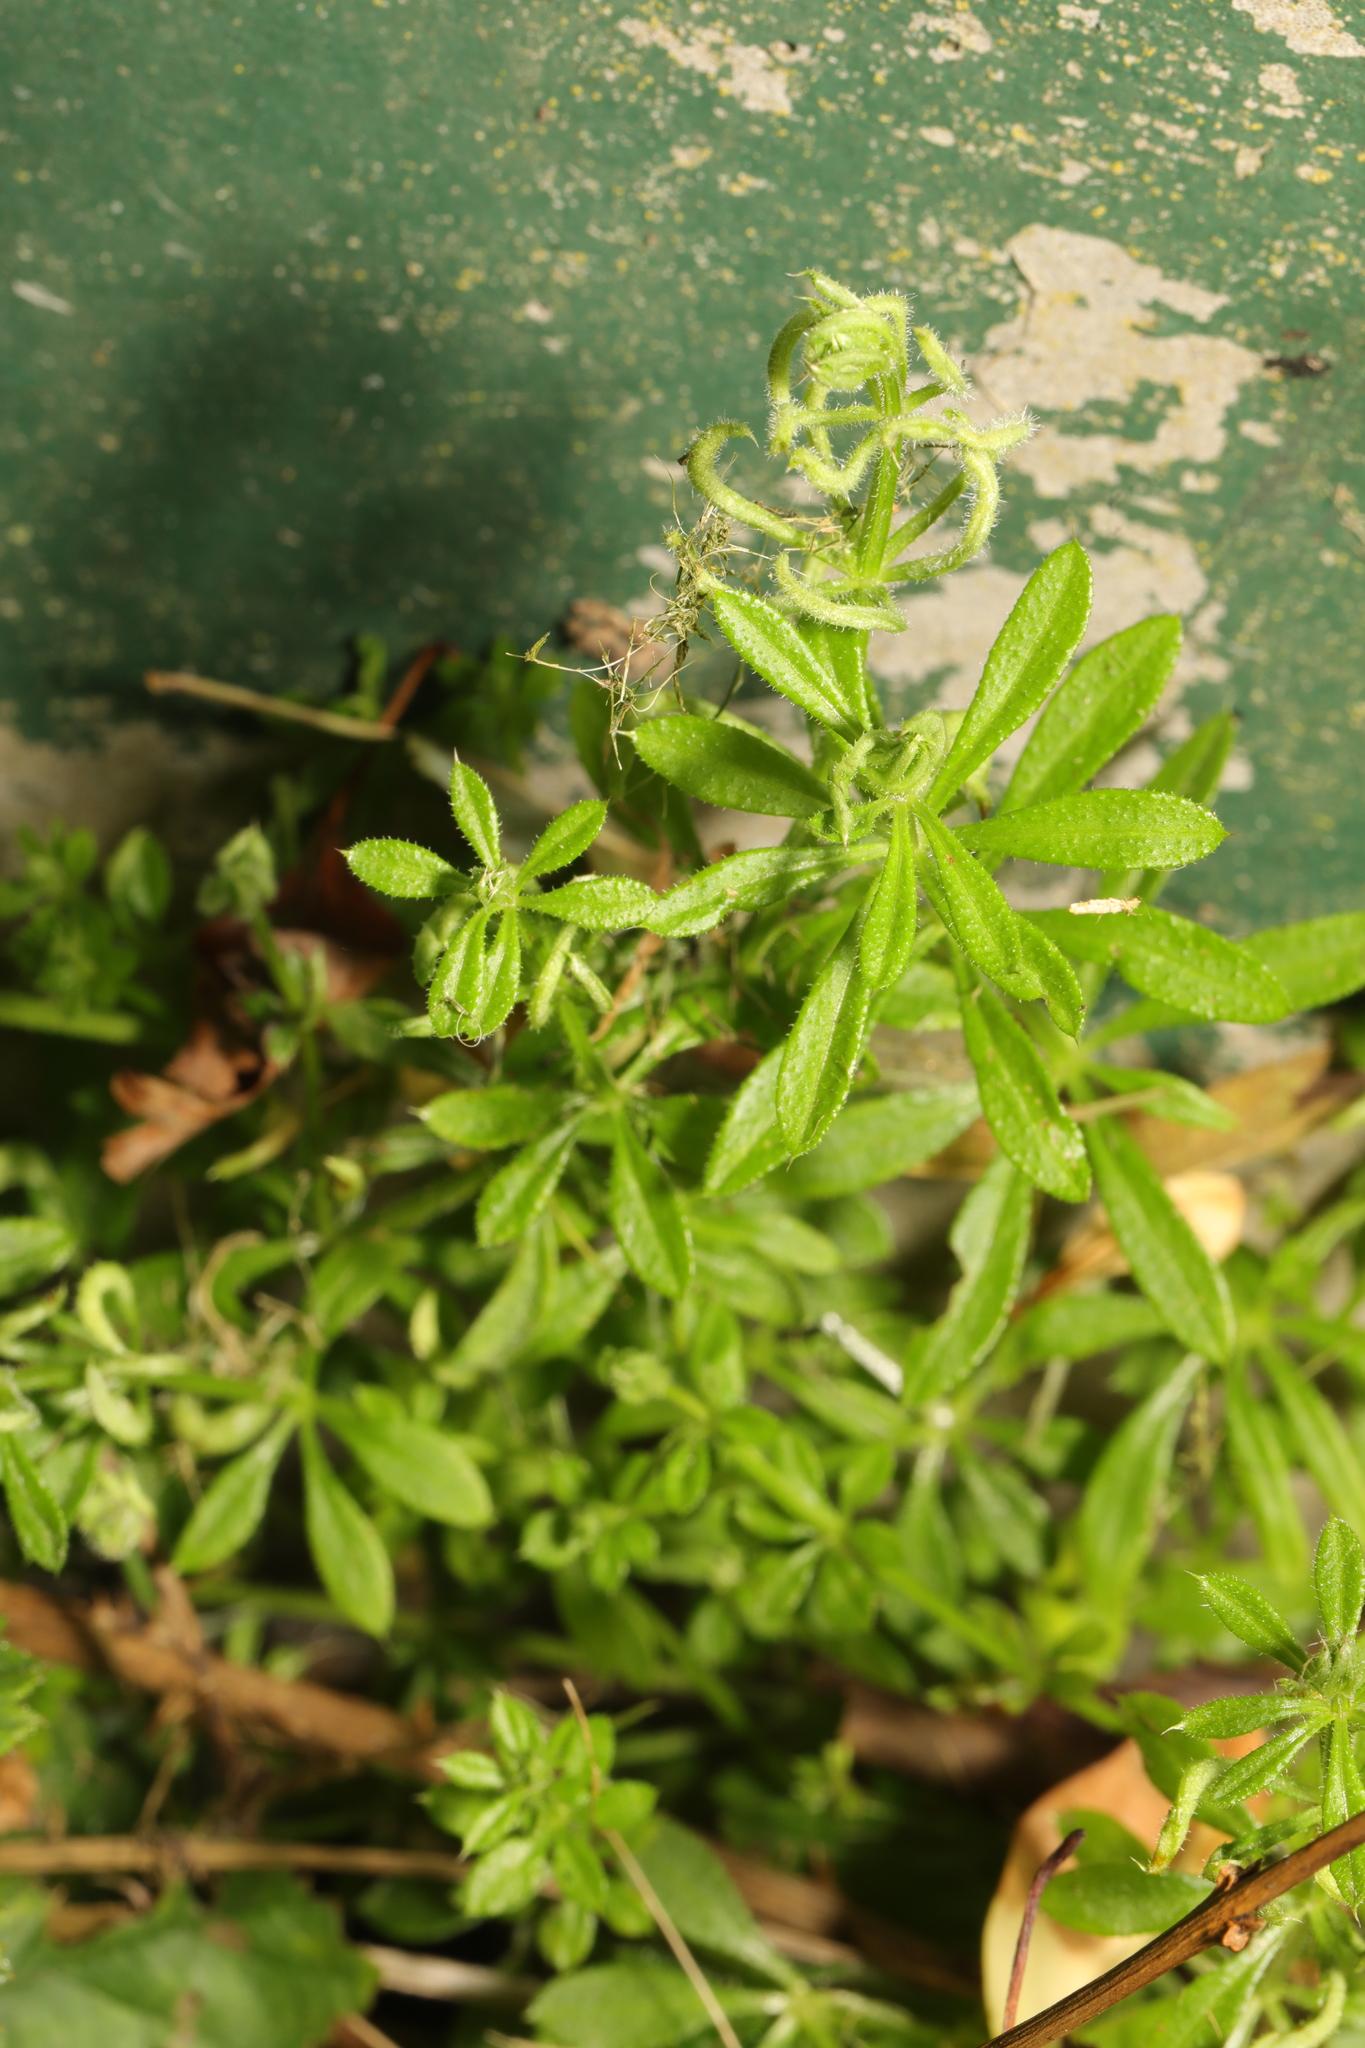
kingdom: Animalia
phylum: Arthropoda
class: Arachnida
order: Trombidiformes
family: Eriophyidae
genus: Cecidophyes
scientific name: Cecidophyes rouhollahi
